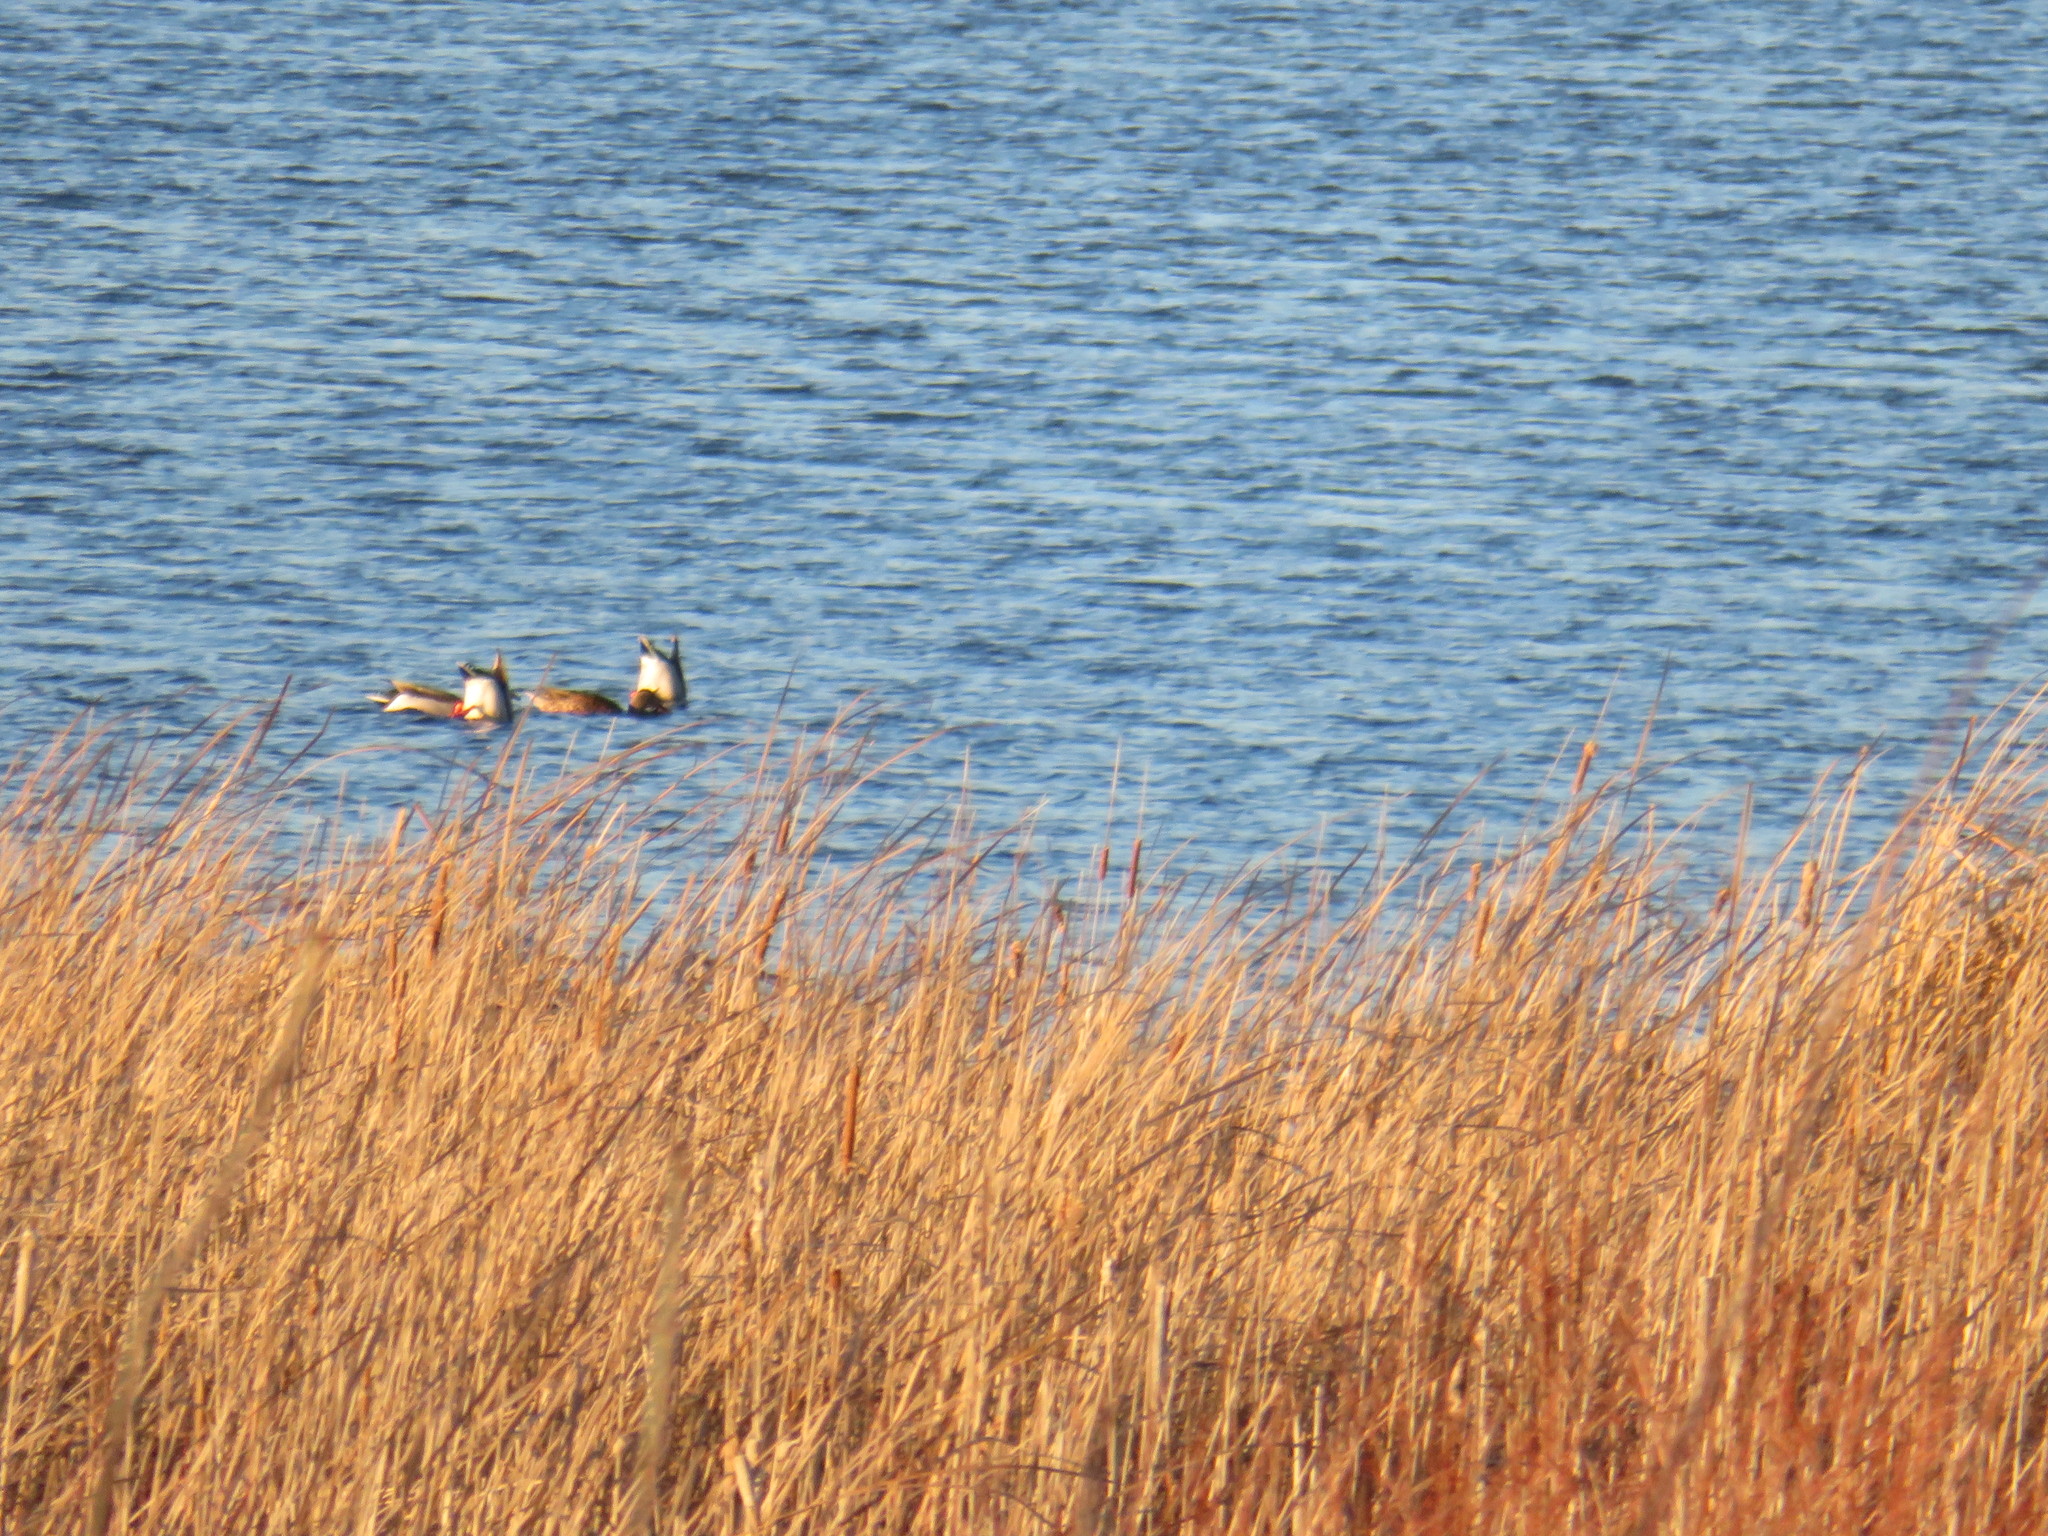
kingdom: Animalia
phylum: Chordata
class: Aves
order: Anseriformes
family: Anatidae
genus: Anas
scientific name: Anas platyrhynchos
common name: Mallard
